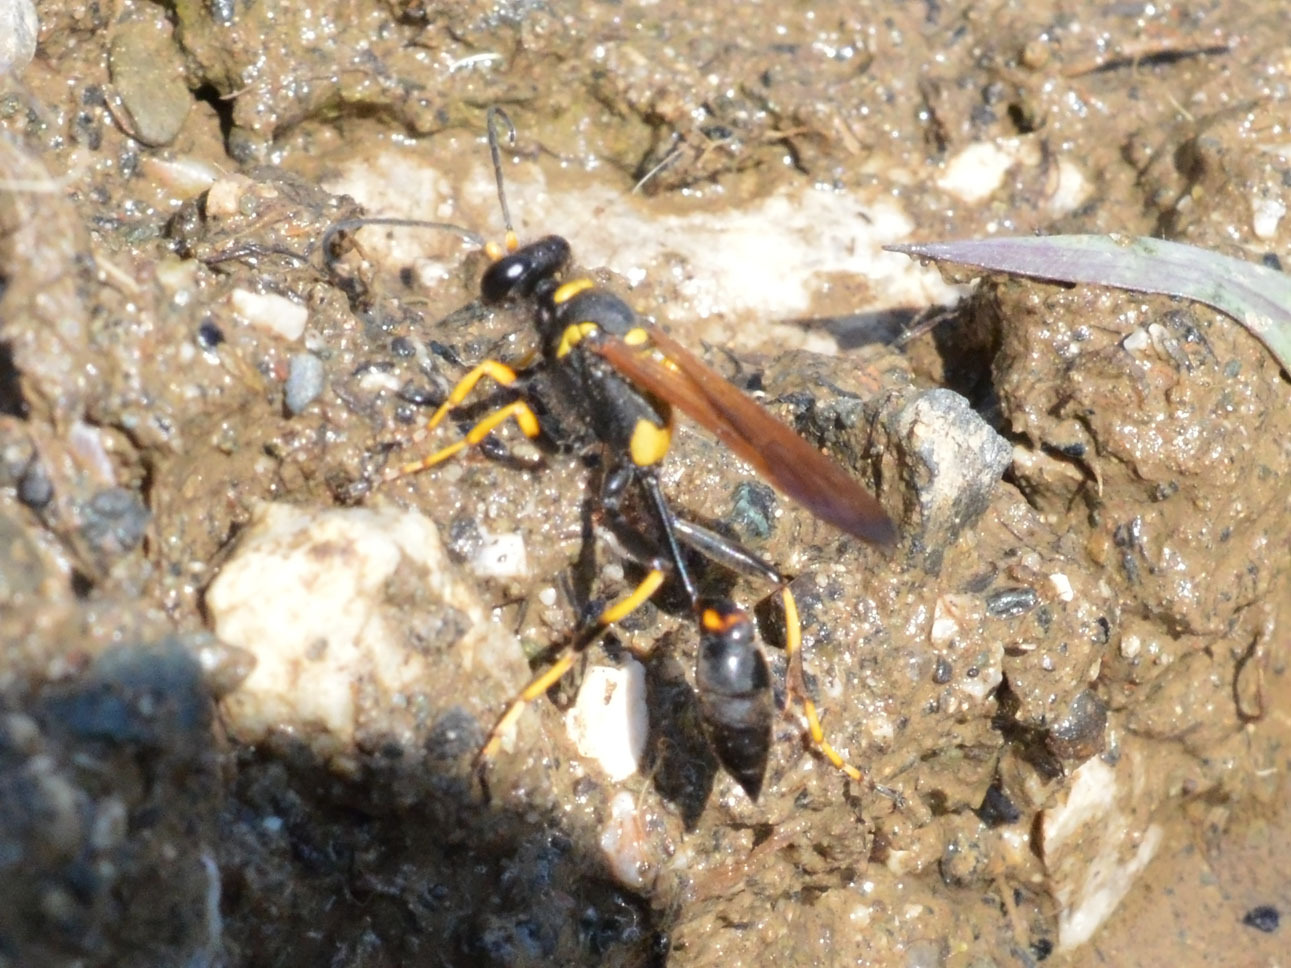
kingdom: Animalia
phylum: Arthropoda
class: Insecta
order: Hymenoptera
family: Sphecidae
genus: Sceliphron
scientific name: Sceliphron caementarium
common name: Mud dauber
